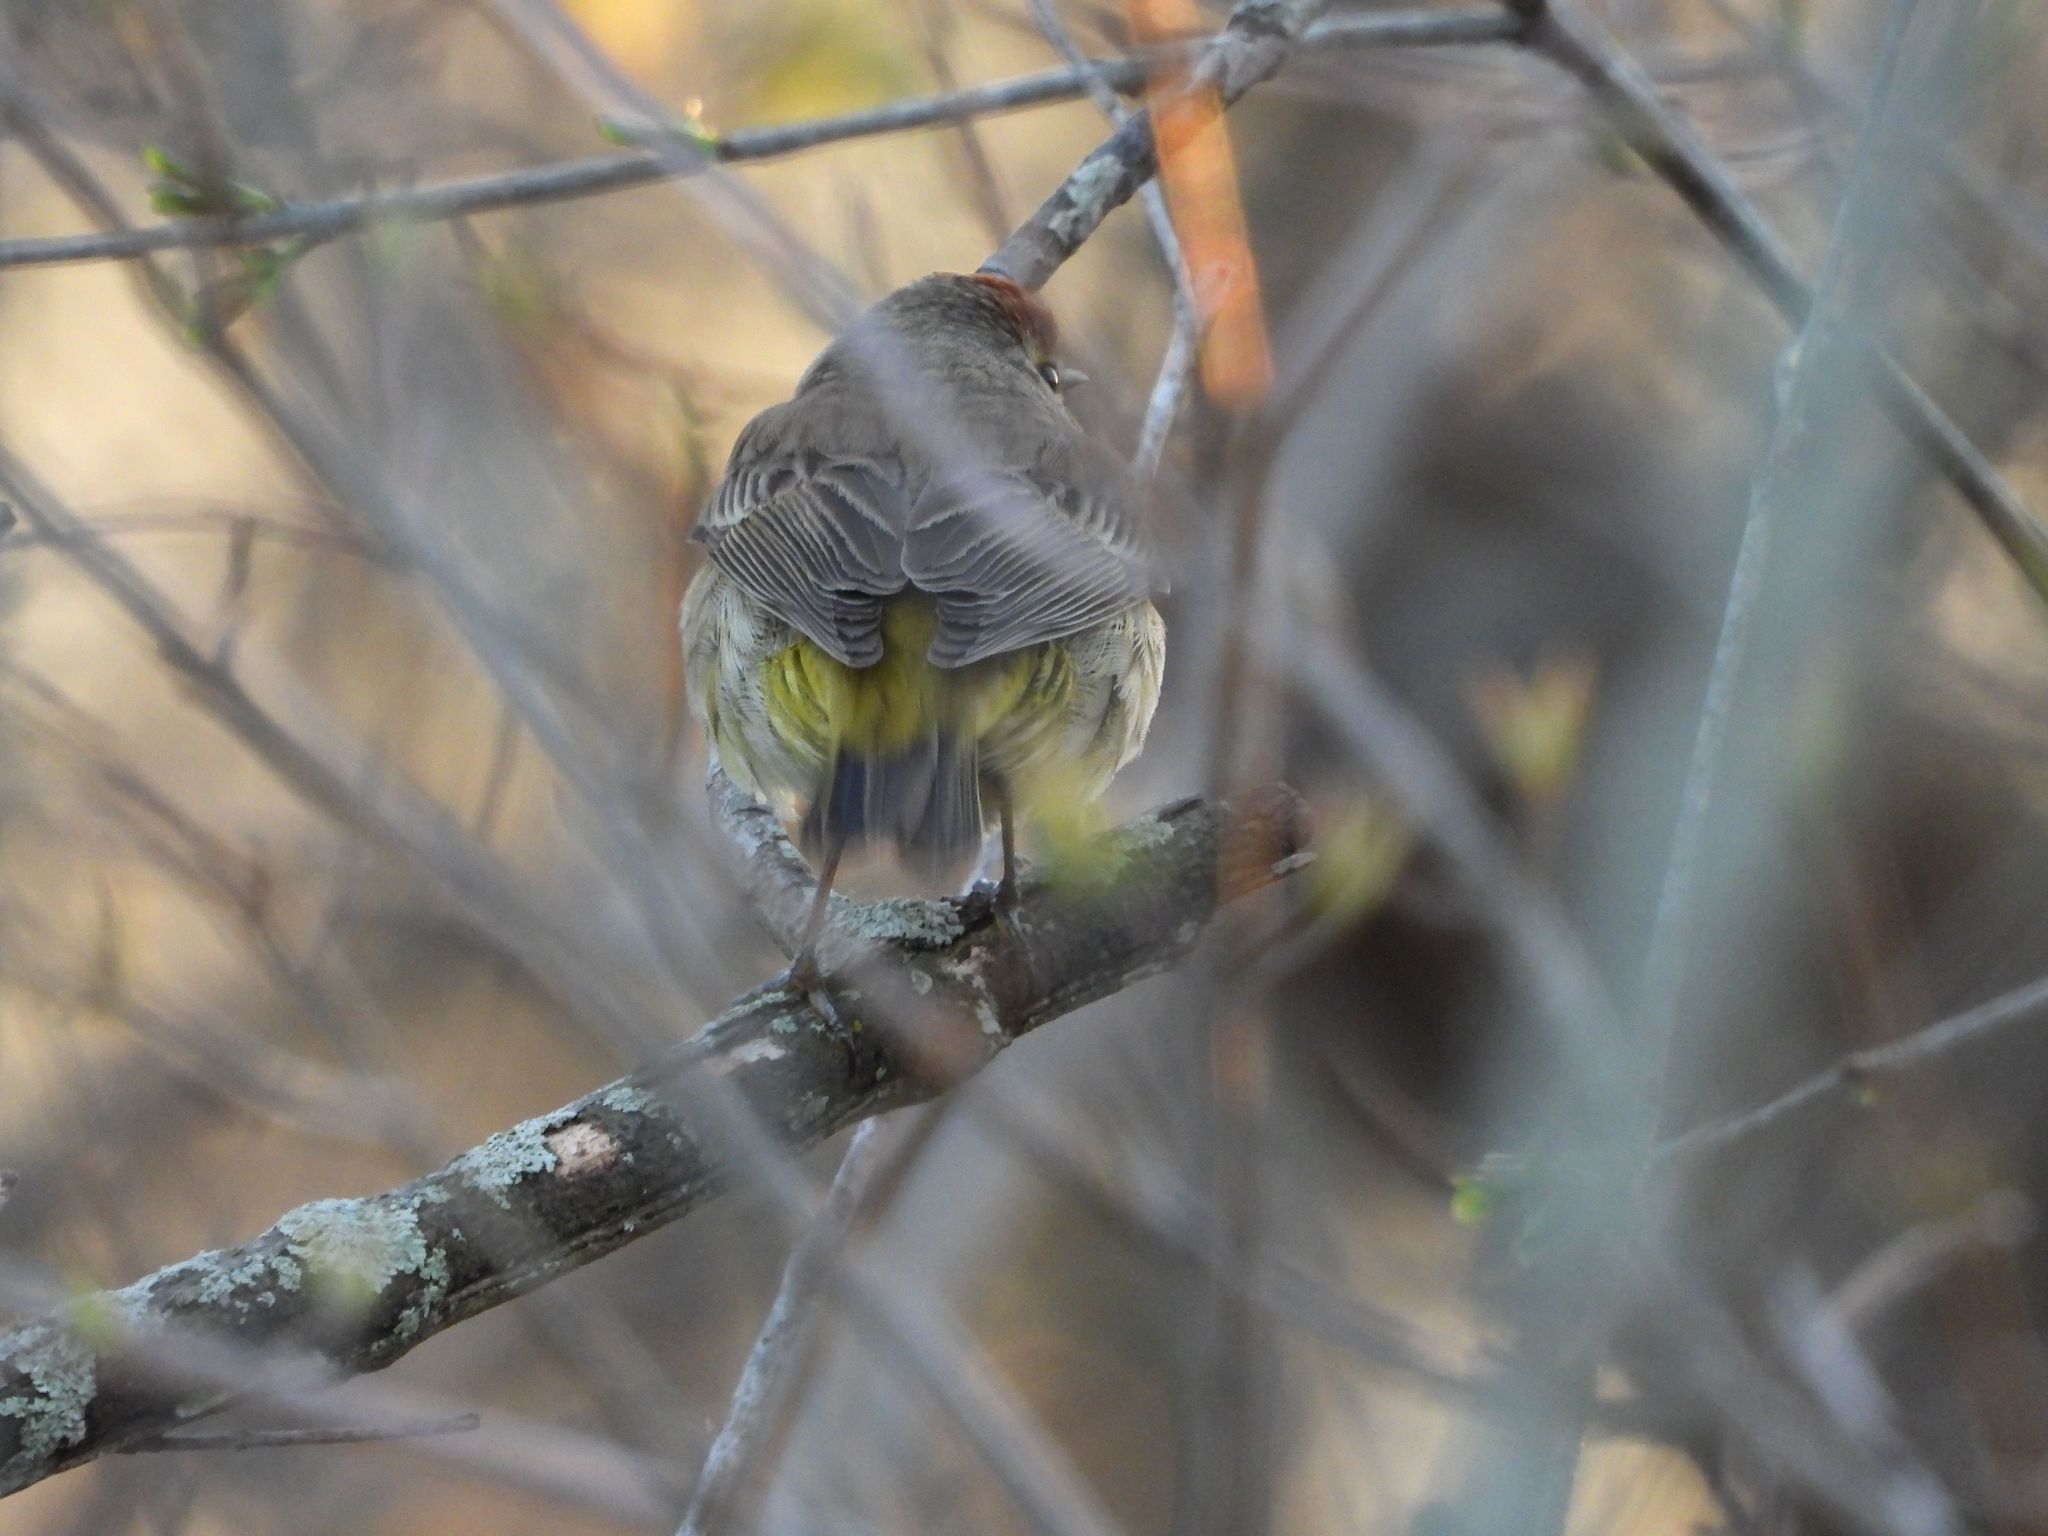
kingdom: Animalia
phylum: Chordata
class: Aves
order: Passeriformes
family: Parulidae
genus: Setophaga
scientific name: Setophaga palmarum
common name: Palm warbler
